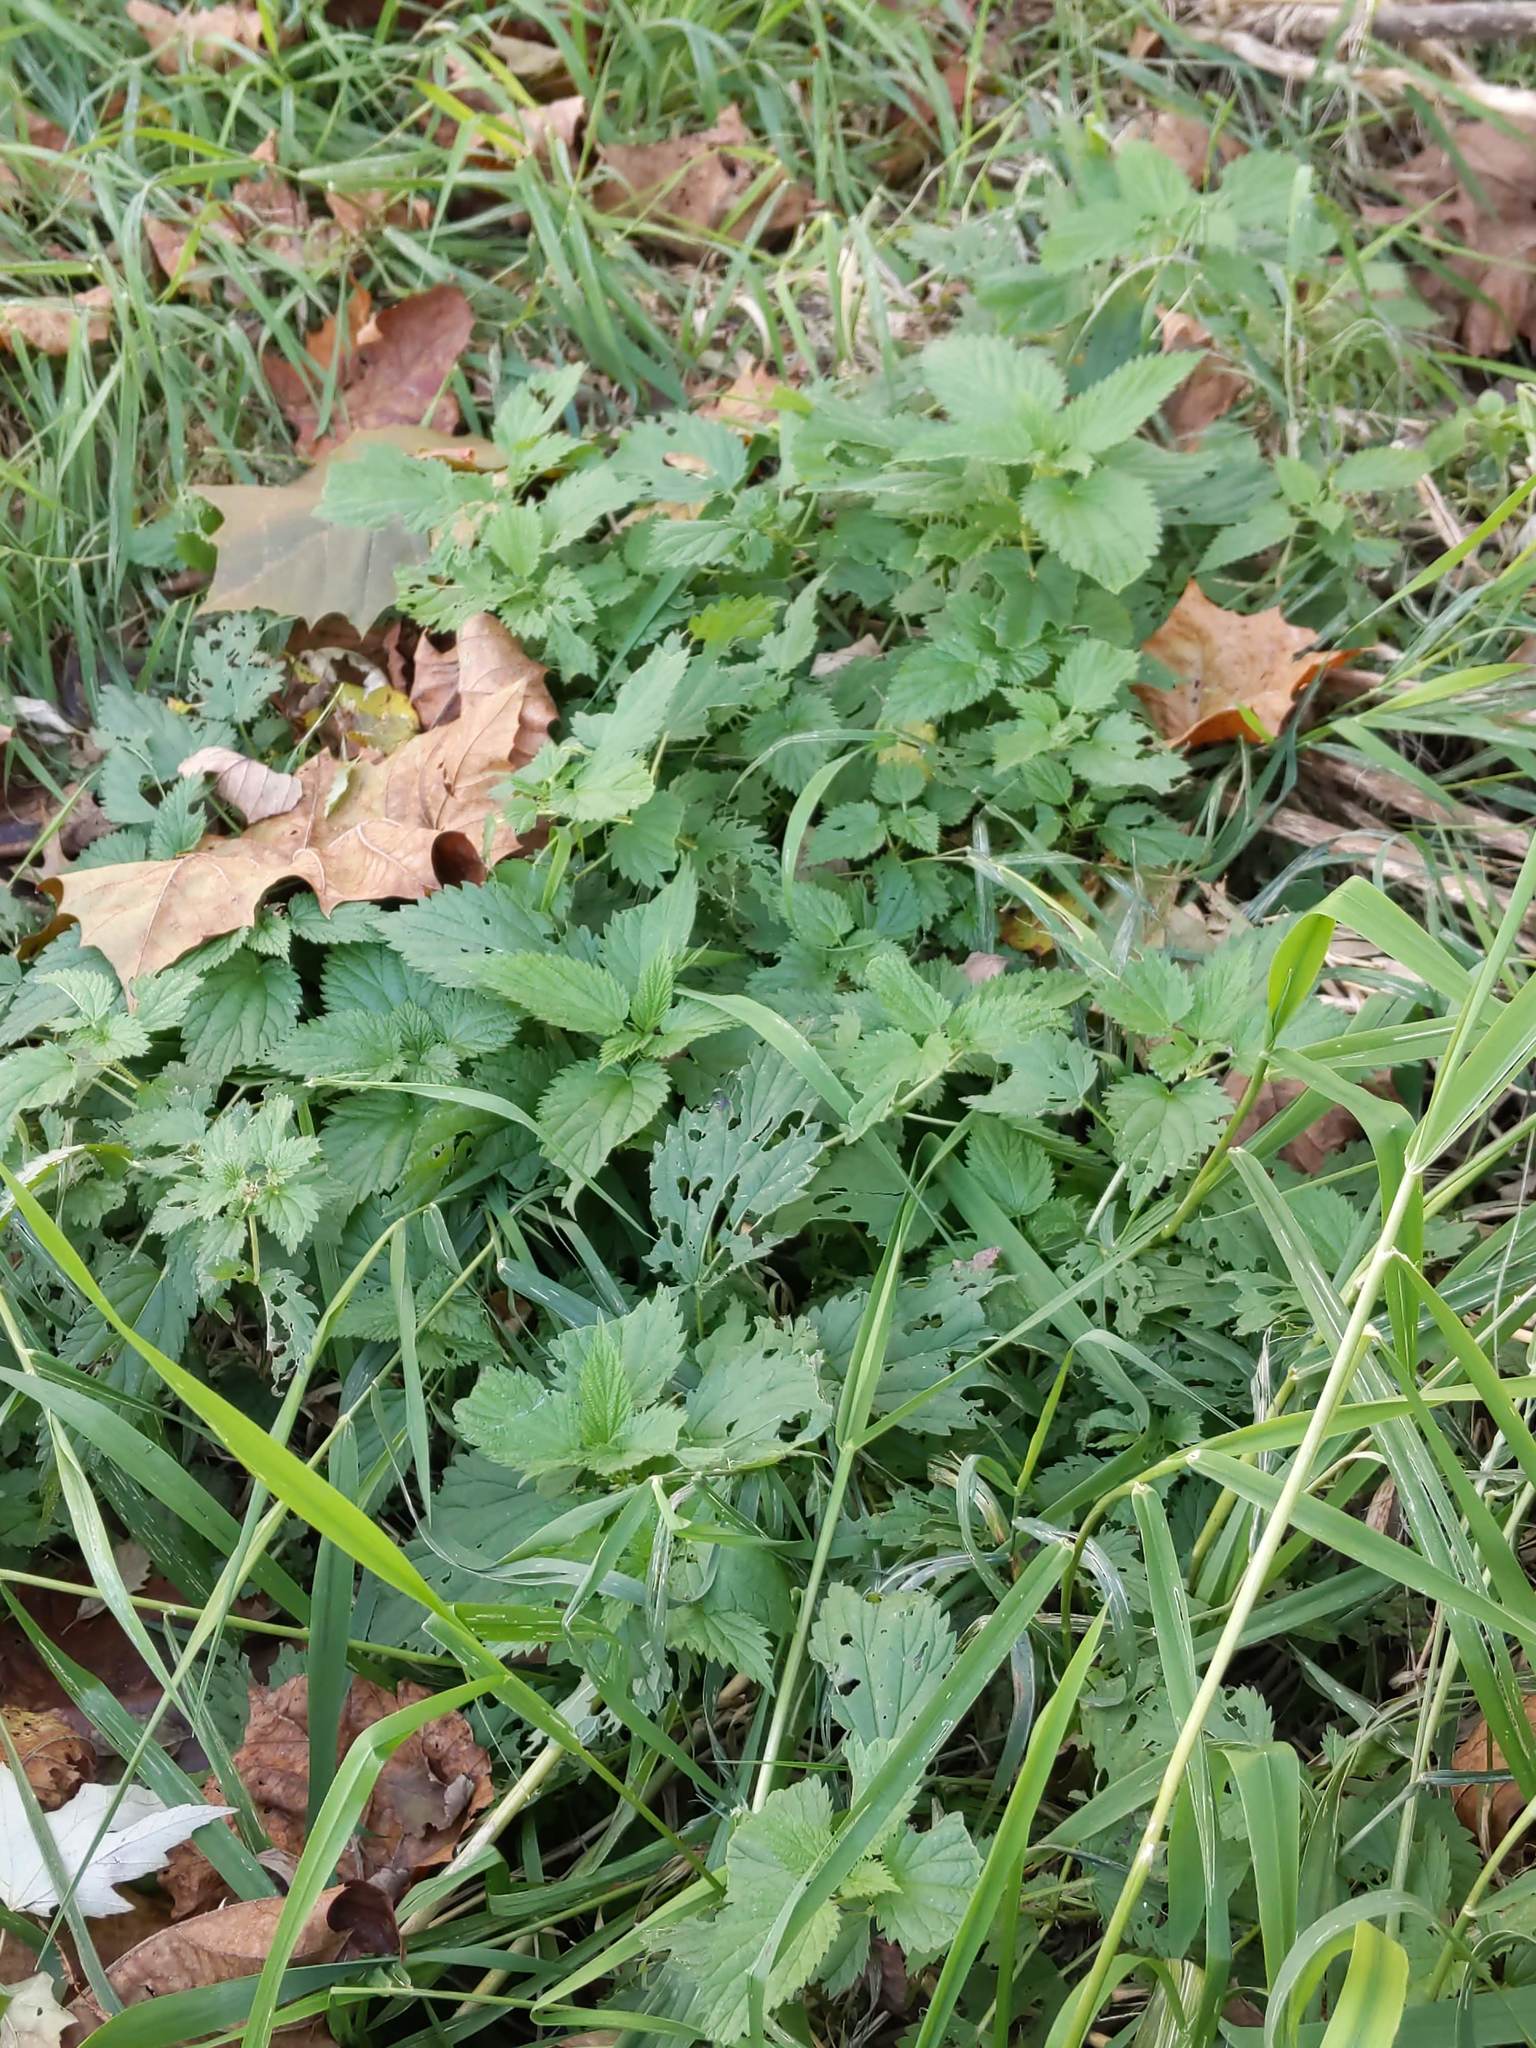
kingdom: Plantae
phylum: Tracheophyta
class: Magnoliopsida
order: Rosales
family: Urticaceae
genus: Urtica
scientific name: Urtica dioica
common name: Common nettle
